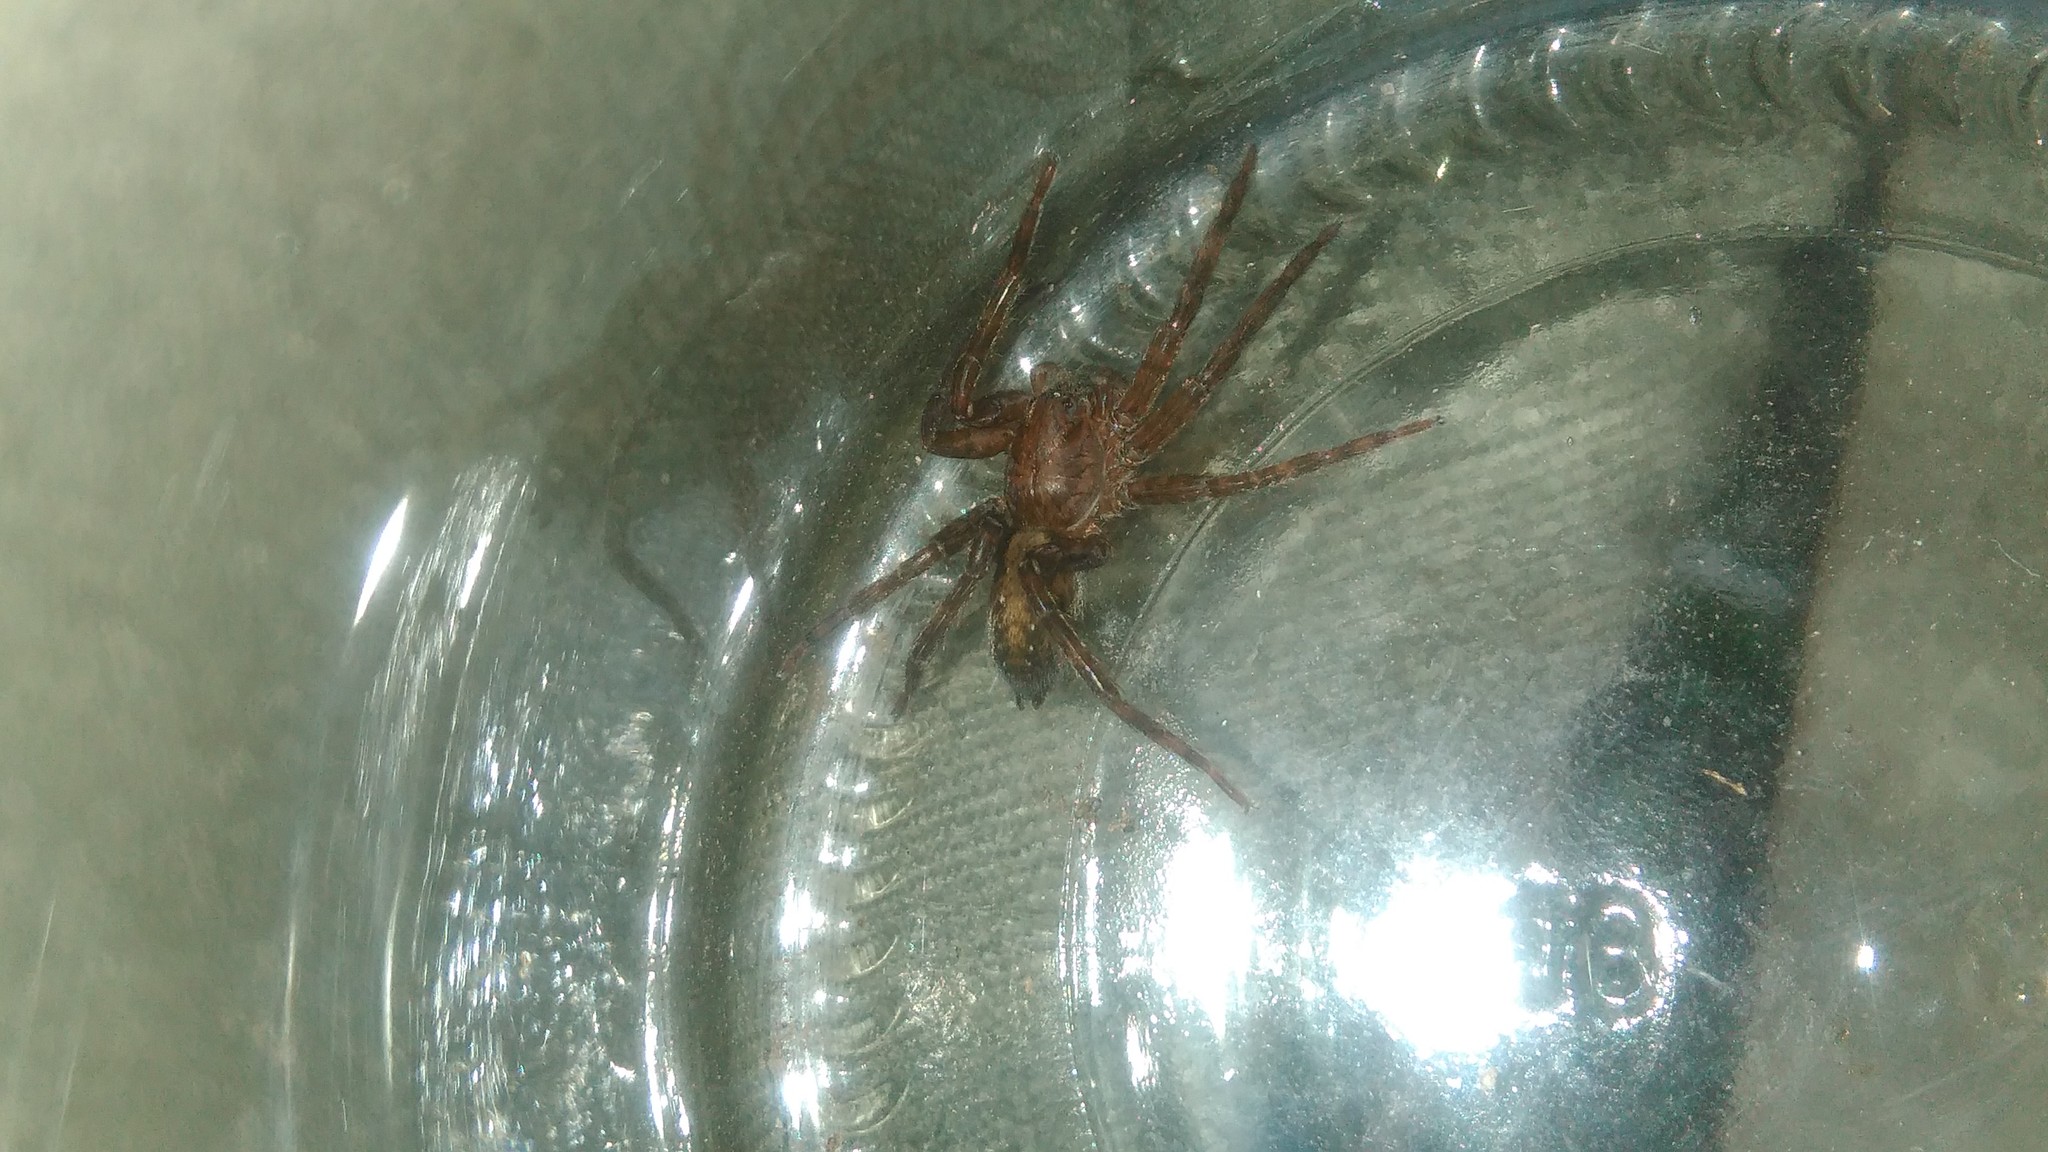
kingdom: Animalia
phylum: Arthropoda
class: Arachnida
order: Araneae
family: Ctenidae
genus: Asthenoctenus
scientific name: Asthenoctenus borellii
